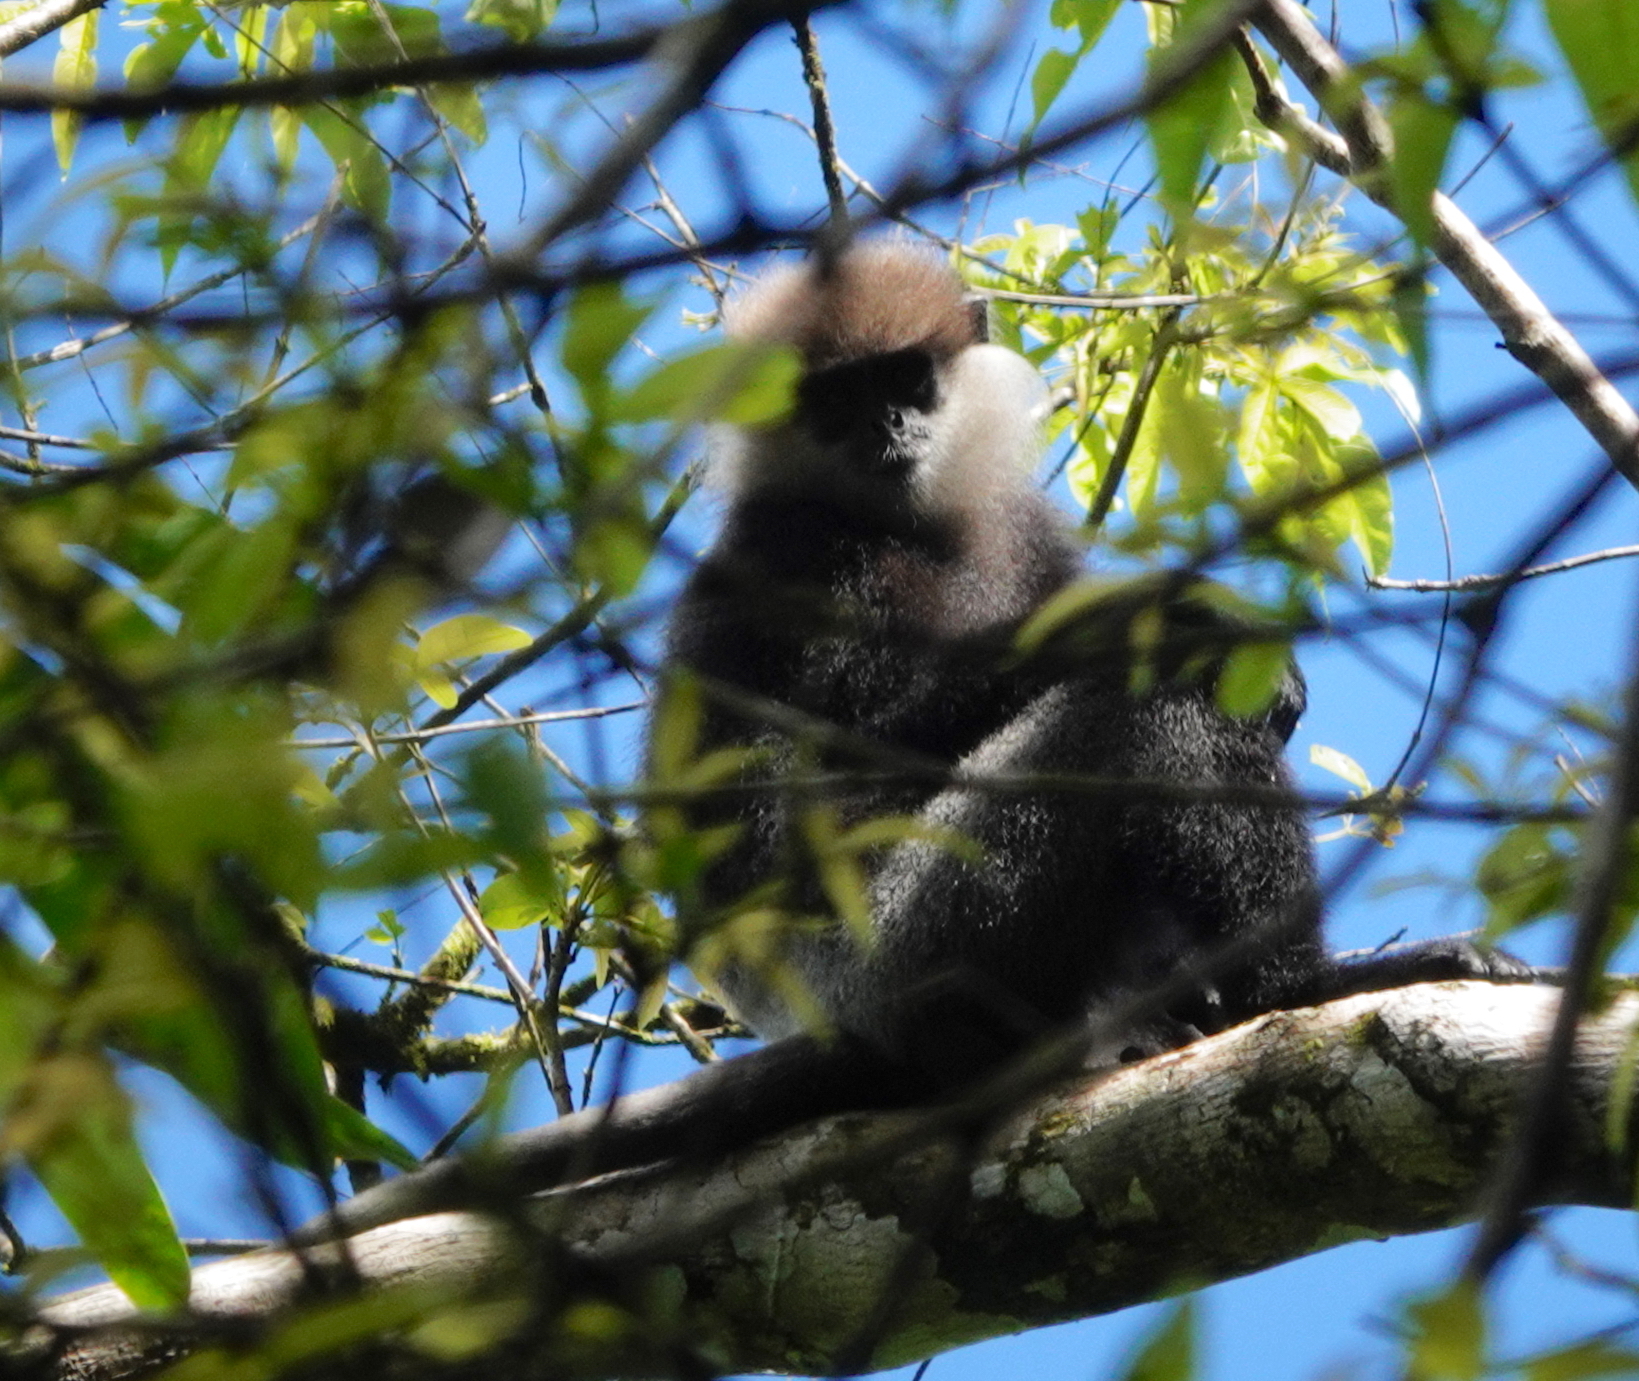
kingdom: Animalia
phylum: Chordata
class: Mammalia
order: Primates
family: Cercopithecidae
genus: Semnopithecus
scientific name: Semnopithecus vetulus
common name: Purple-faced langur
